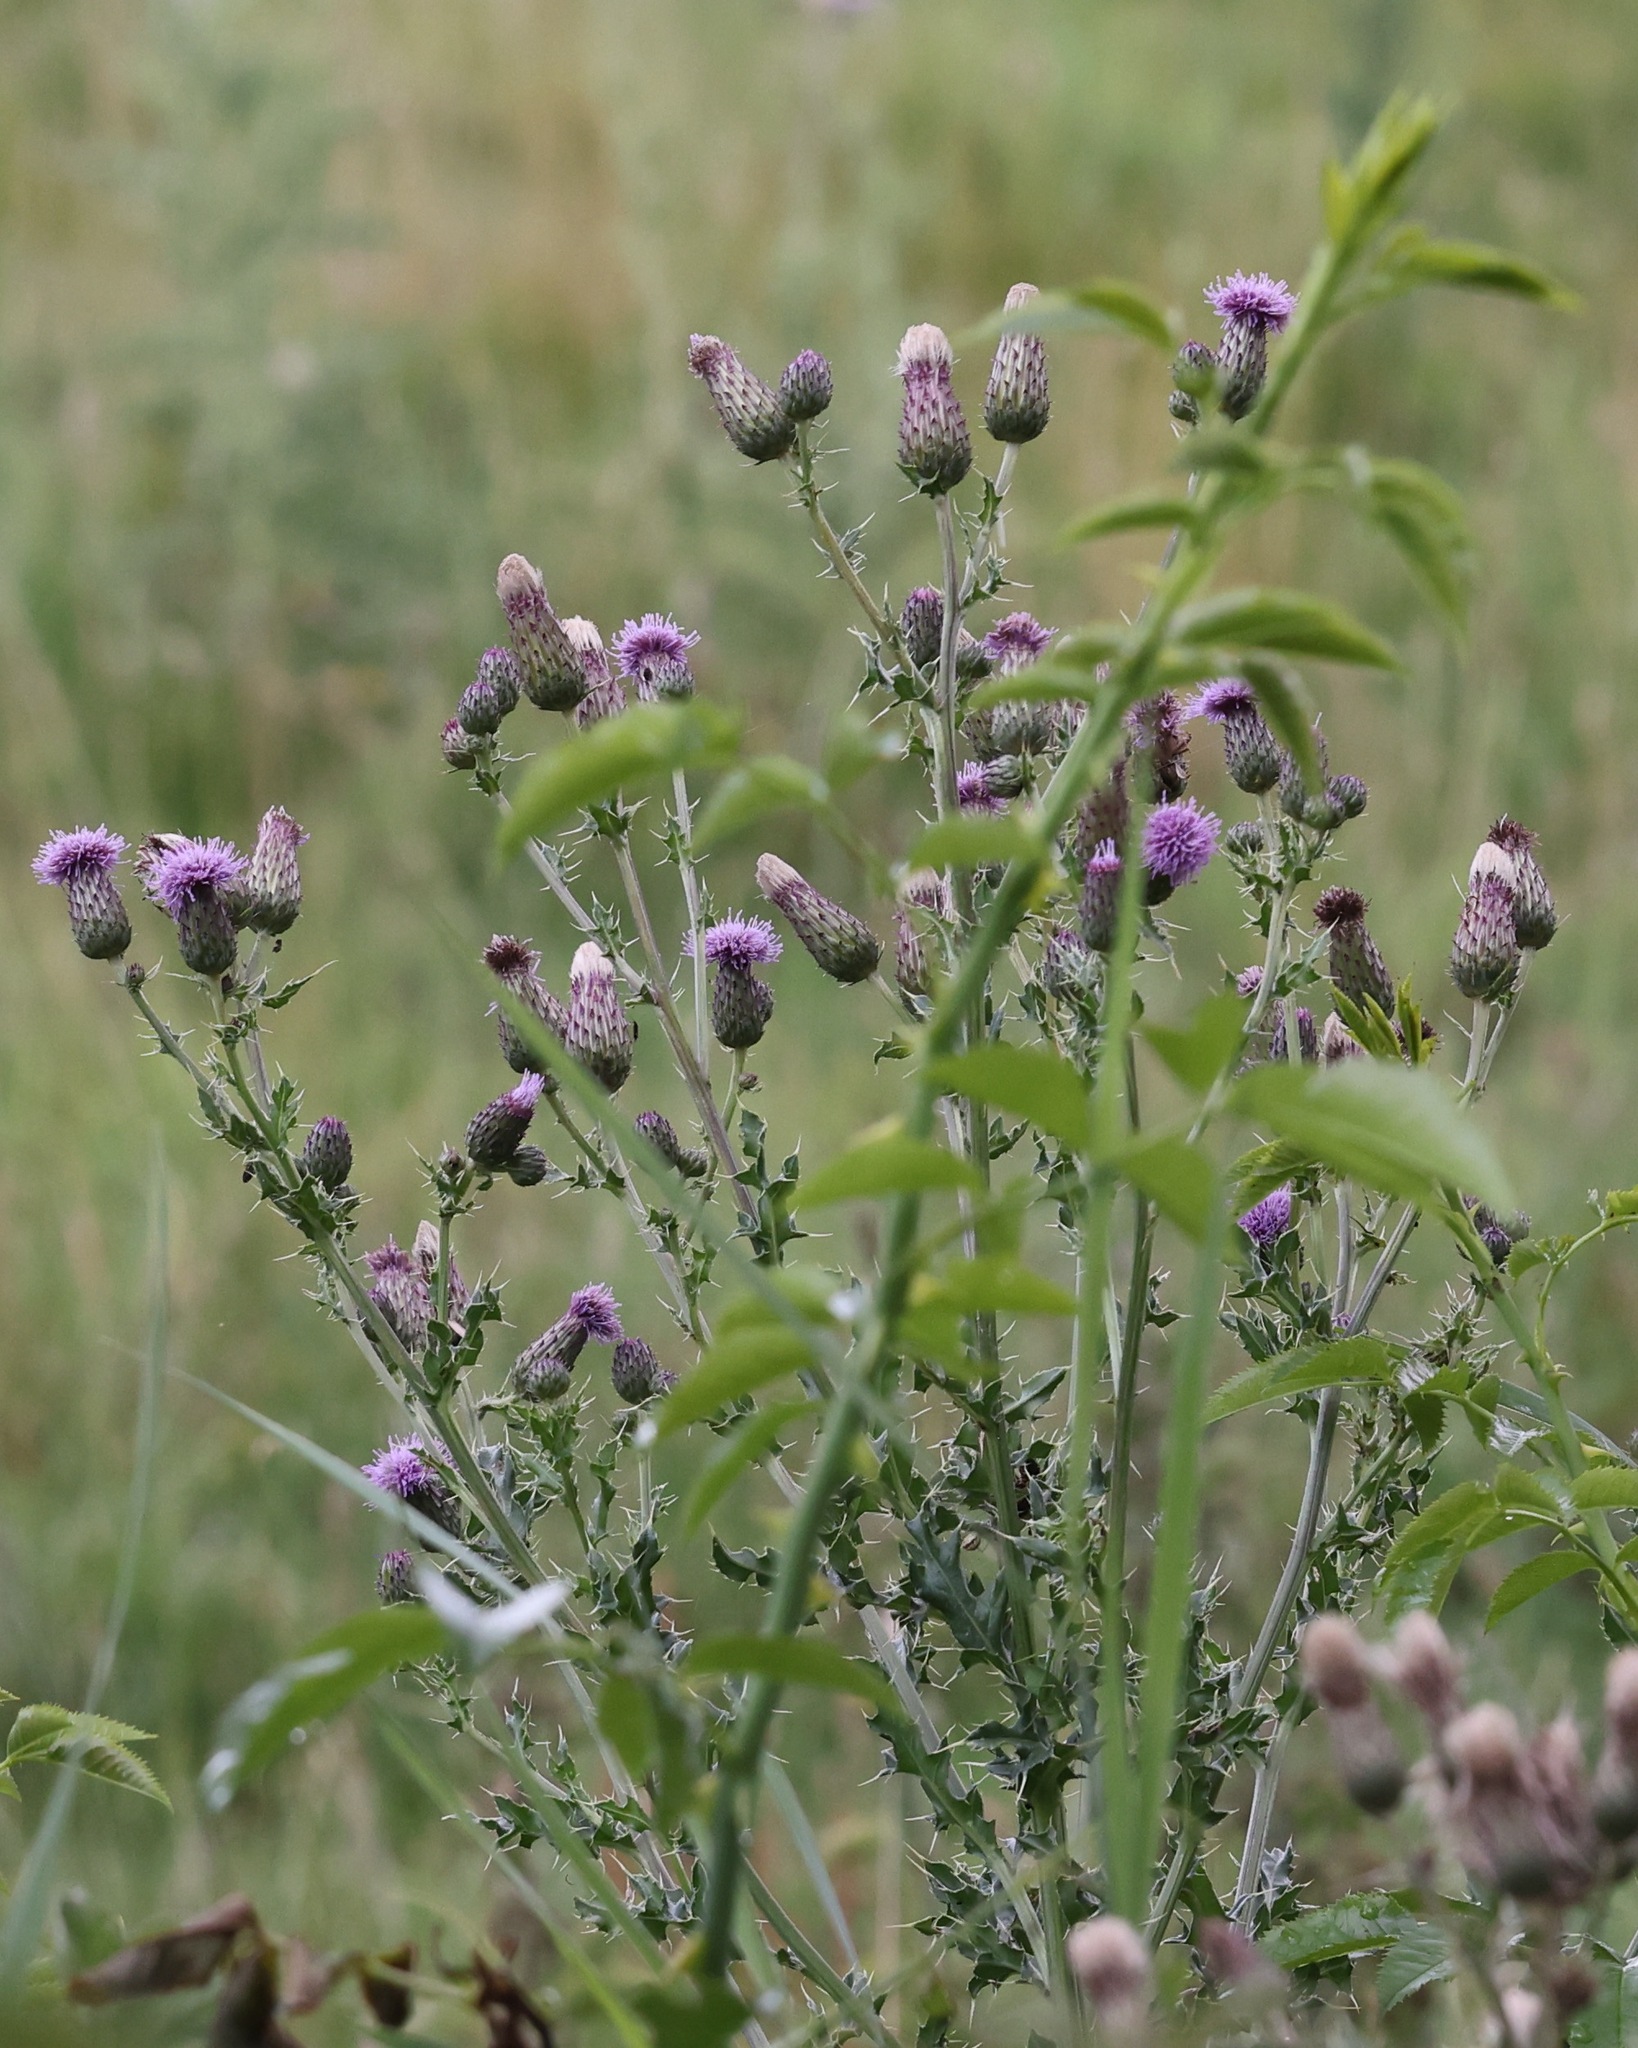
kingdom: Plantae
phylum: Tracheophyta
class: Magnoliopsida
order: Asterales
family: Asteraceae
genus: Cirsium
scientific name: Cirsium arvense
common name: Creeping thistle
